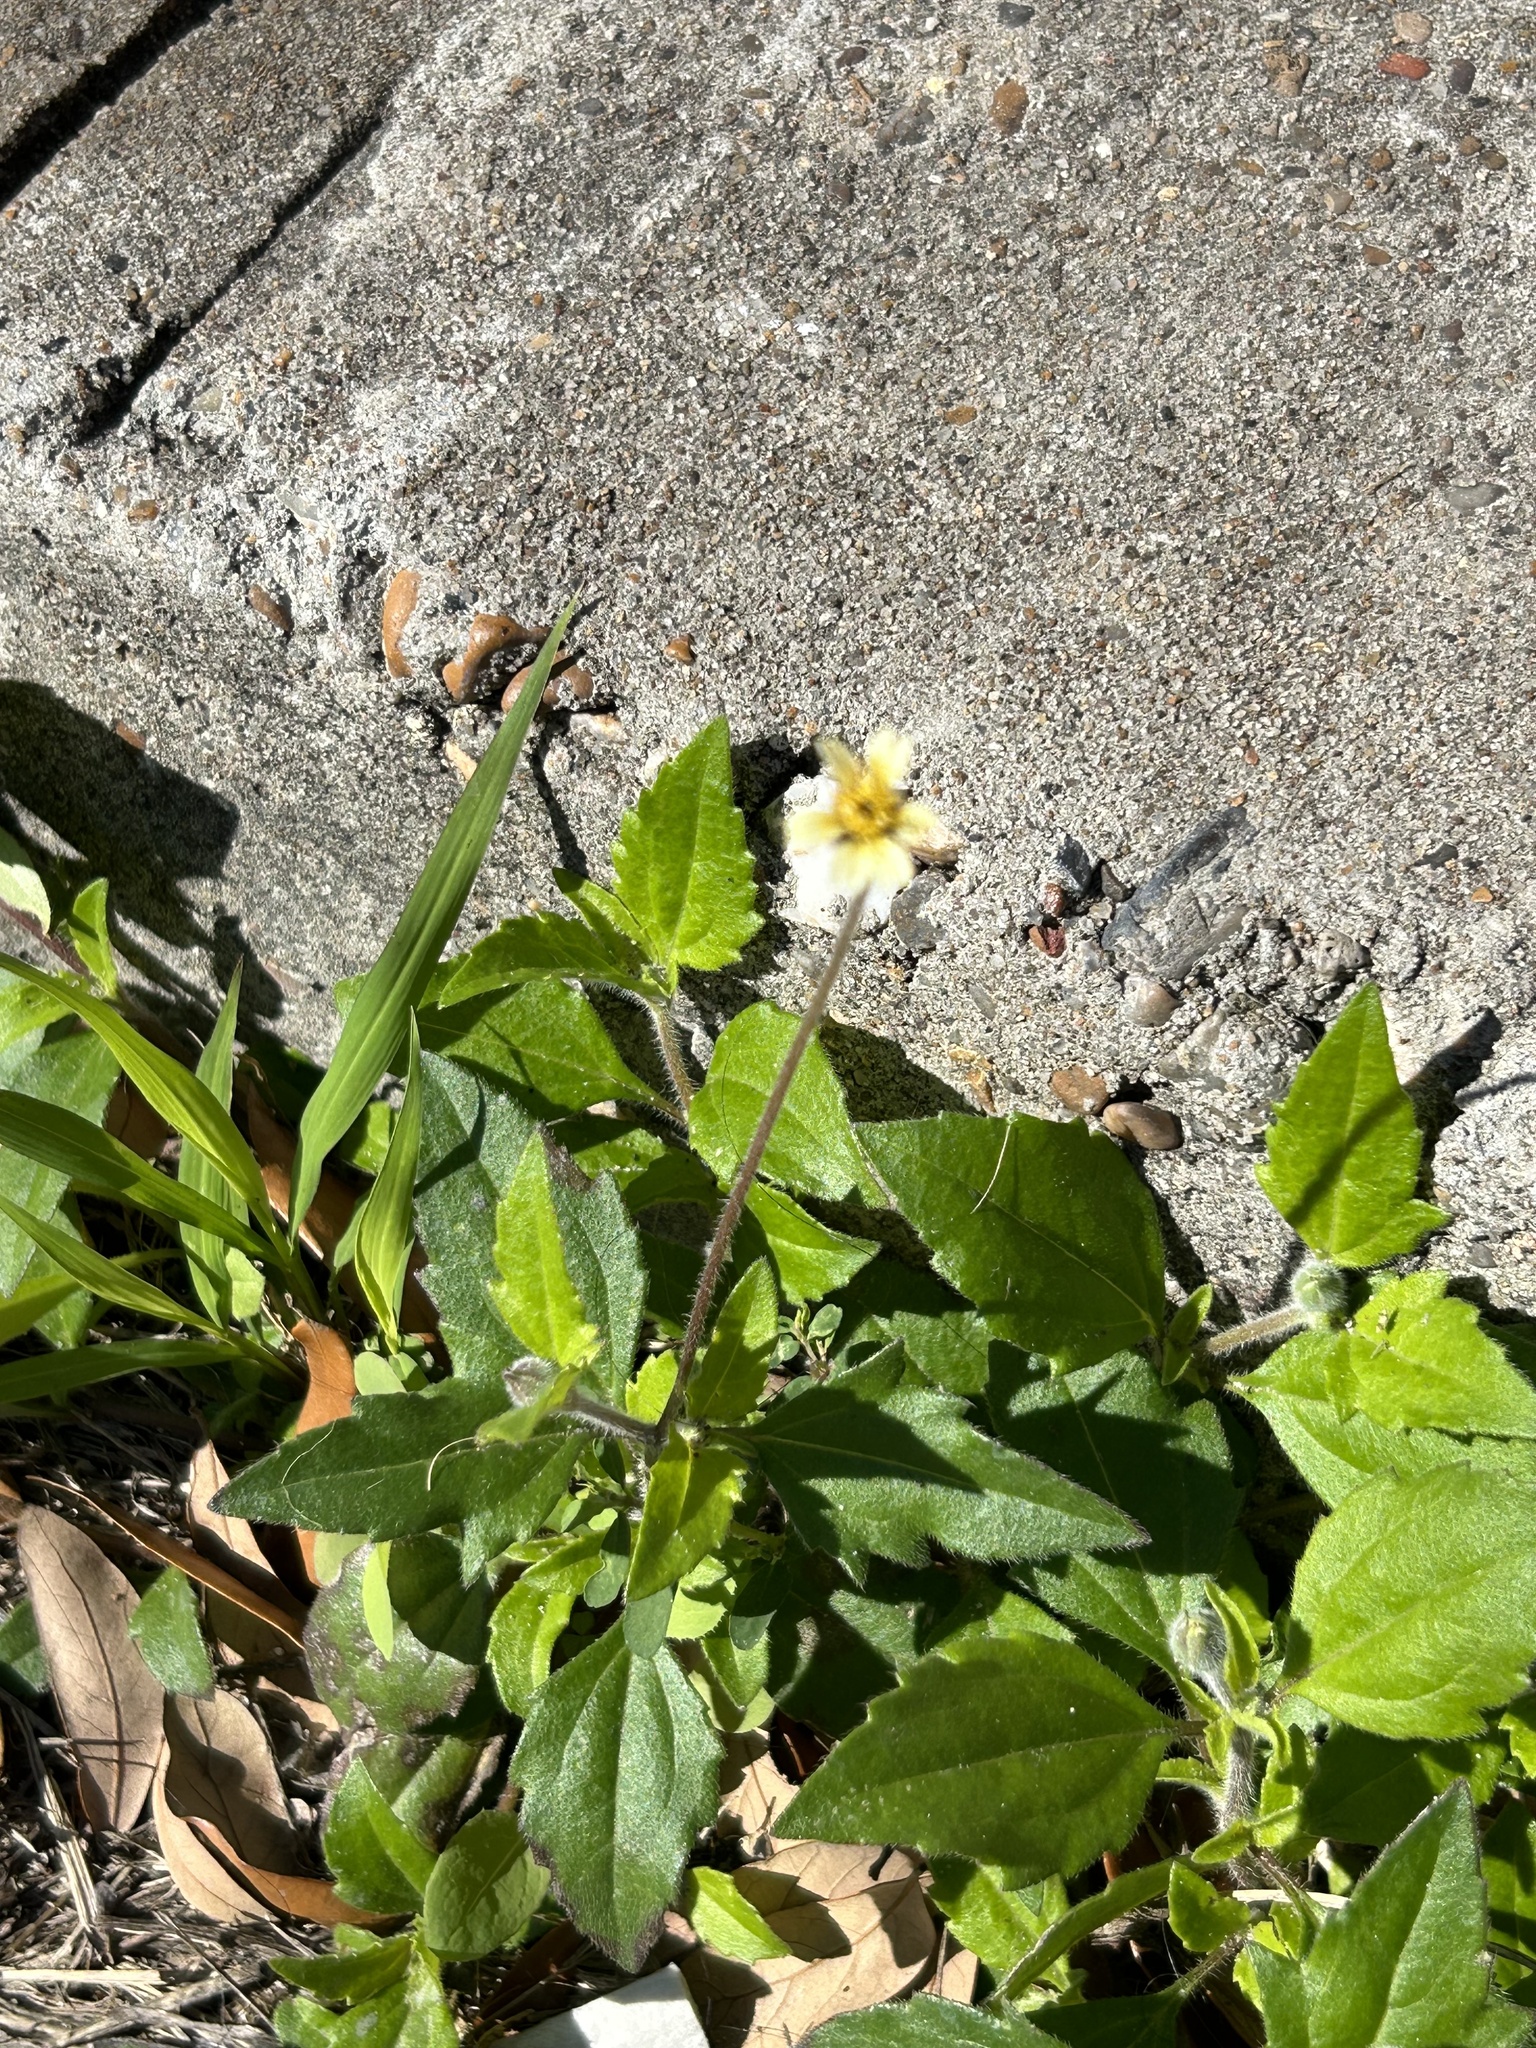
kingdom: Plantae
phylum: Tracheophyta
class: Magnoliopsida
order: Asterales
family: Asteraceae
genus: Tridax
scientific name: Tridax procumbens
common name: Coatbuttons
